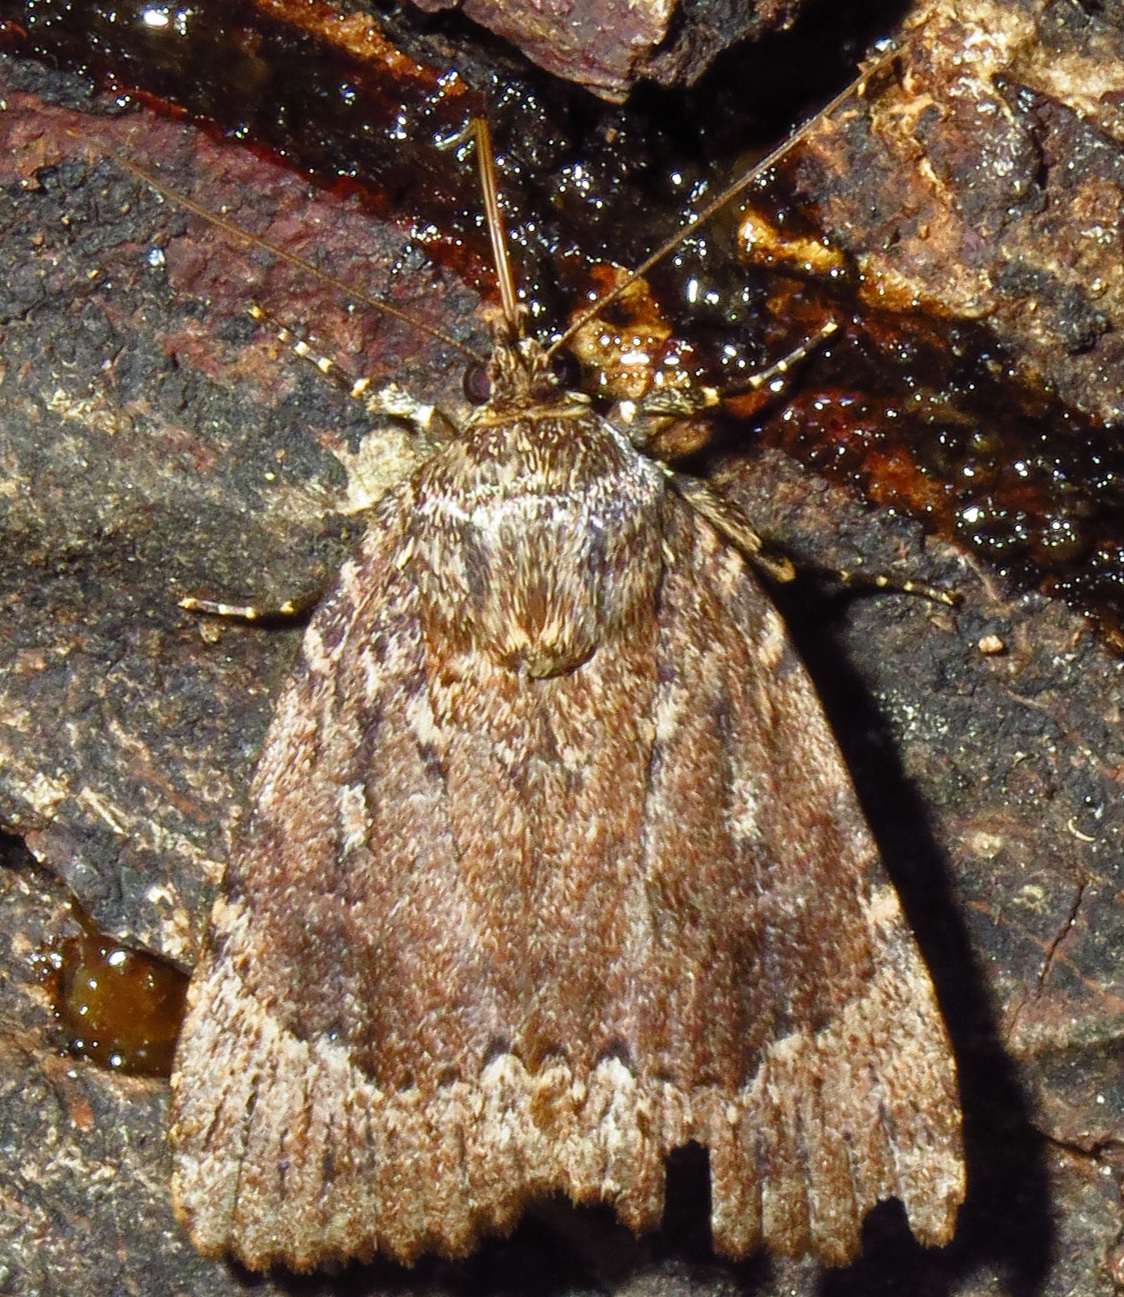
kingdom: Animalia
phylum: Arthropoda
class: Insecta
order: Lepidoptera
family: Noctuidae
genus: Amphipyra
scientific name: Amphipyra pyramidoides
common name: American copper underwing
